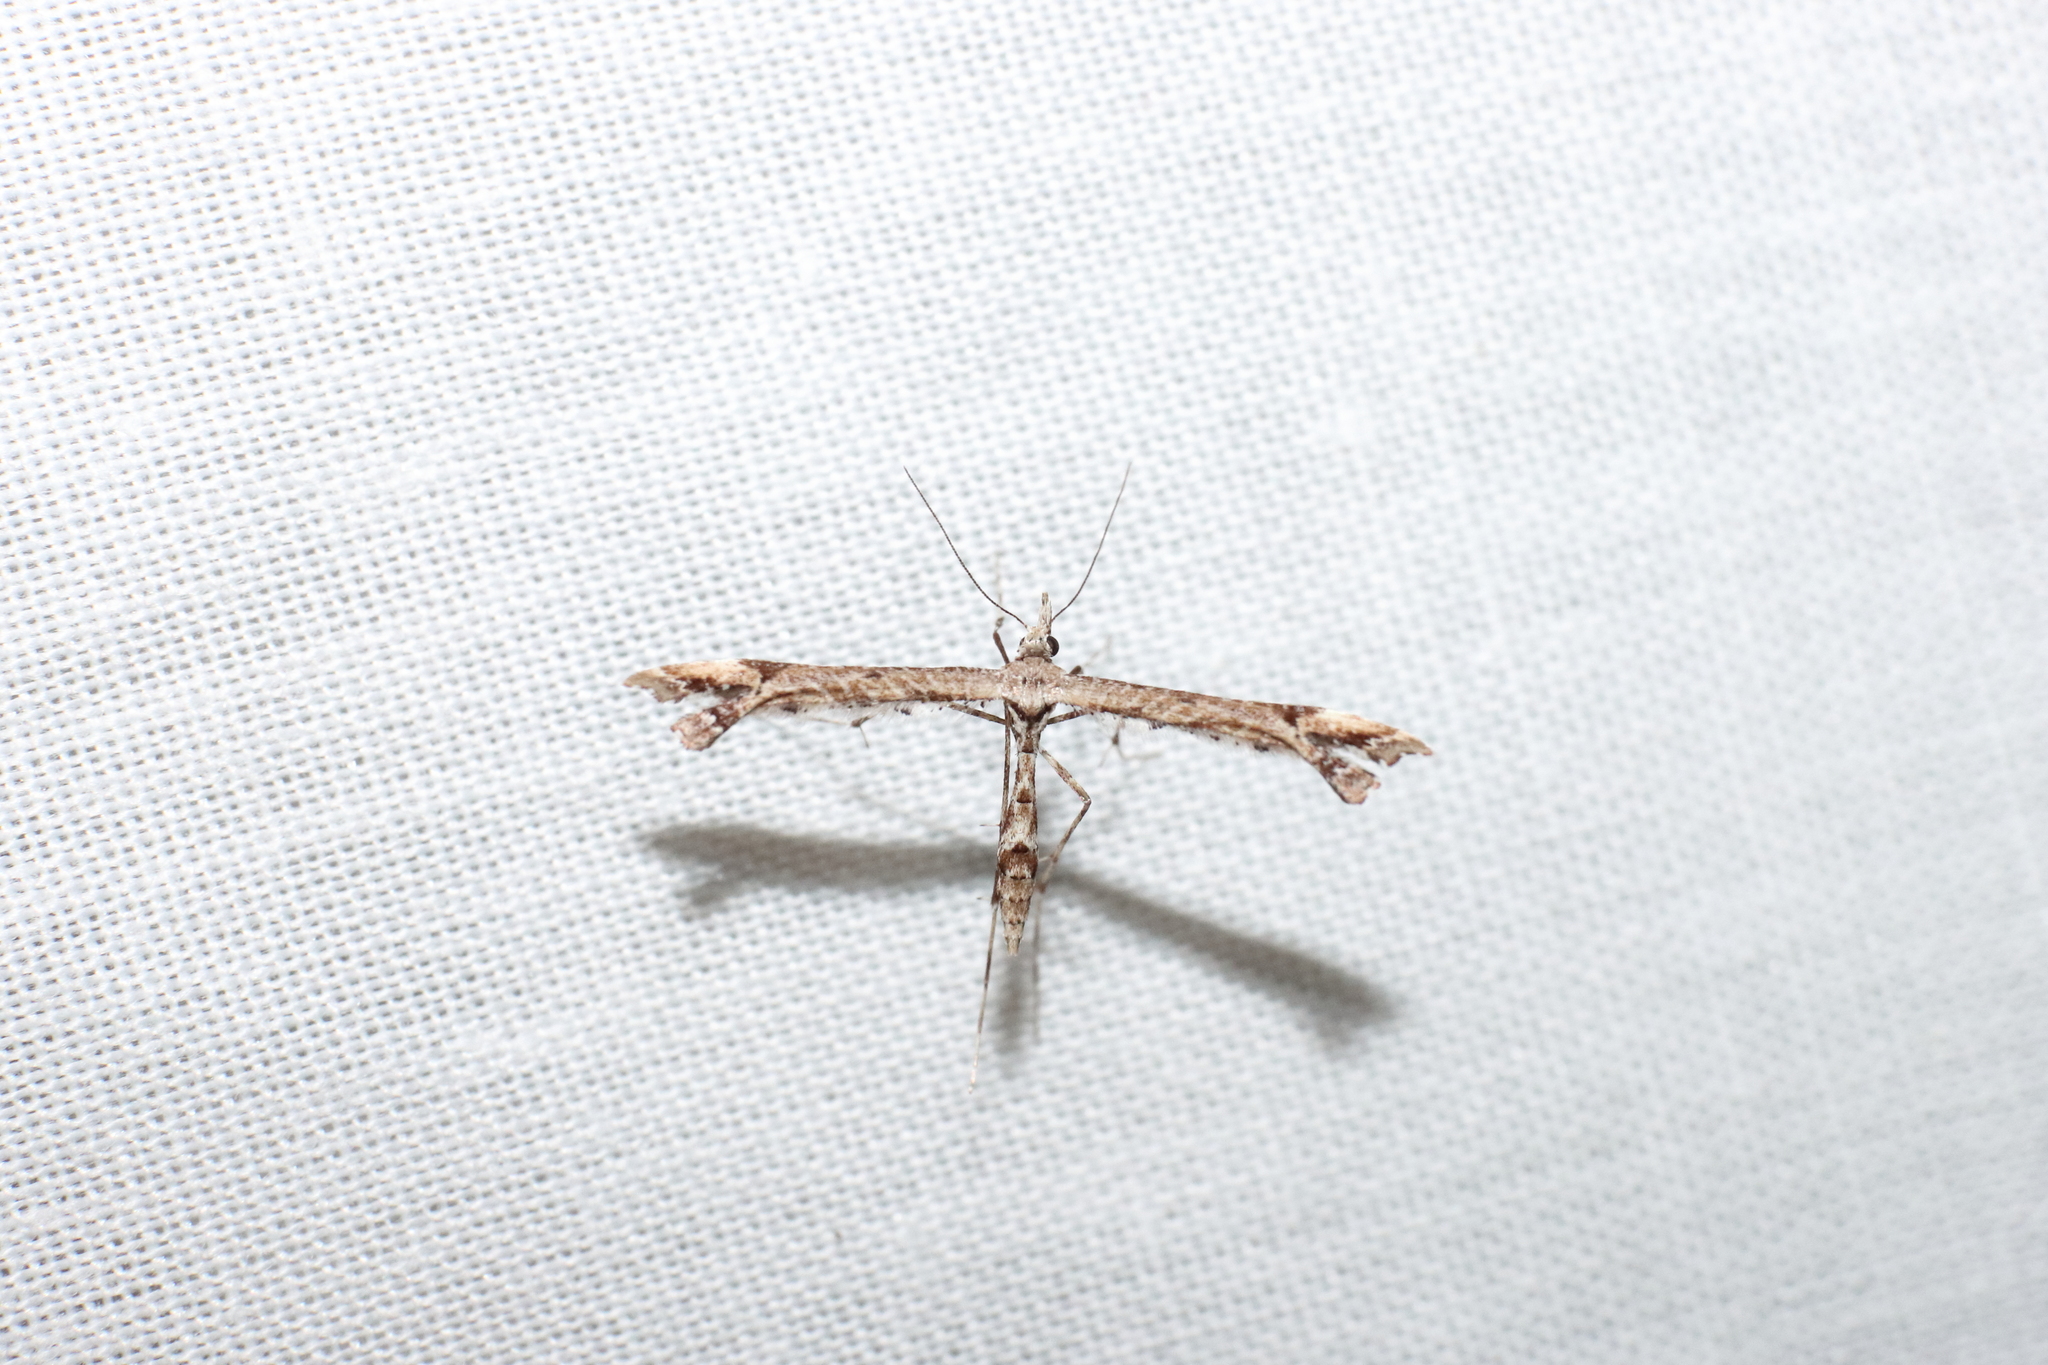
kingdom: Animalia
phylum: Arthropoda
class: Insecta
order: Lepidoptera
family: Pterophoridae
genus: Amblyptilia
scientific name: Amblyptilia repletalis
